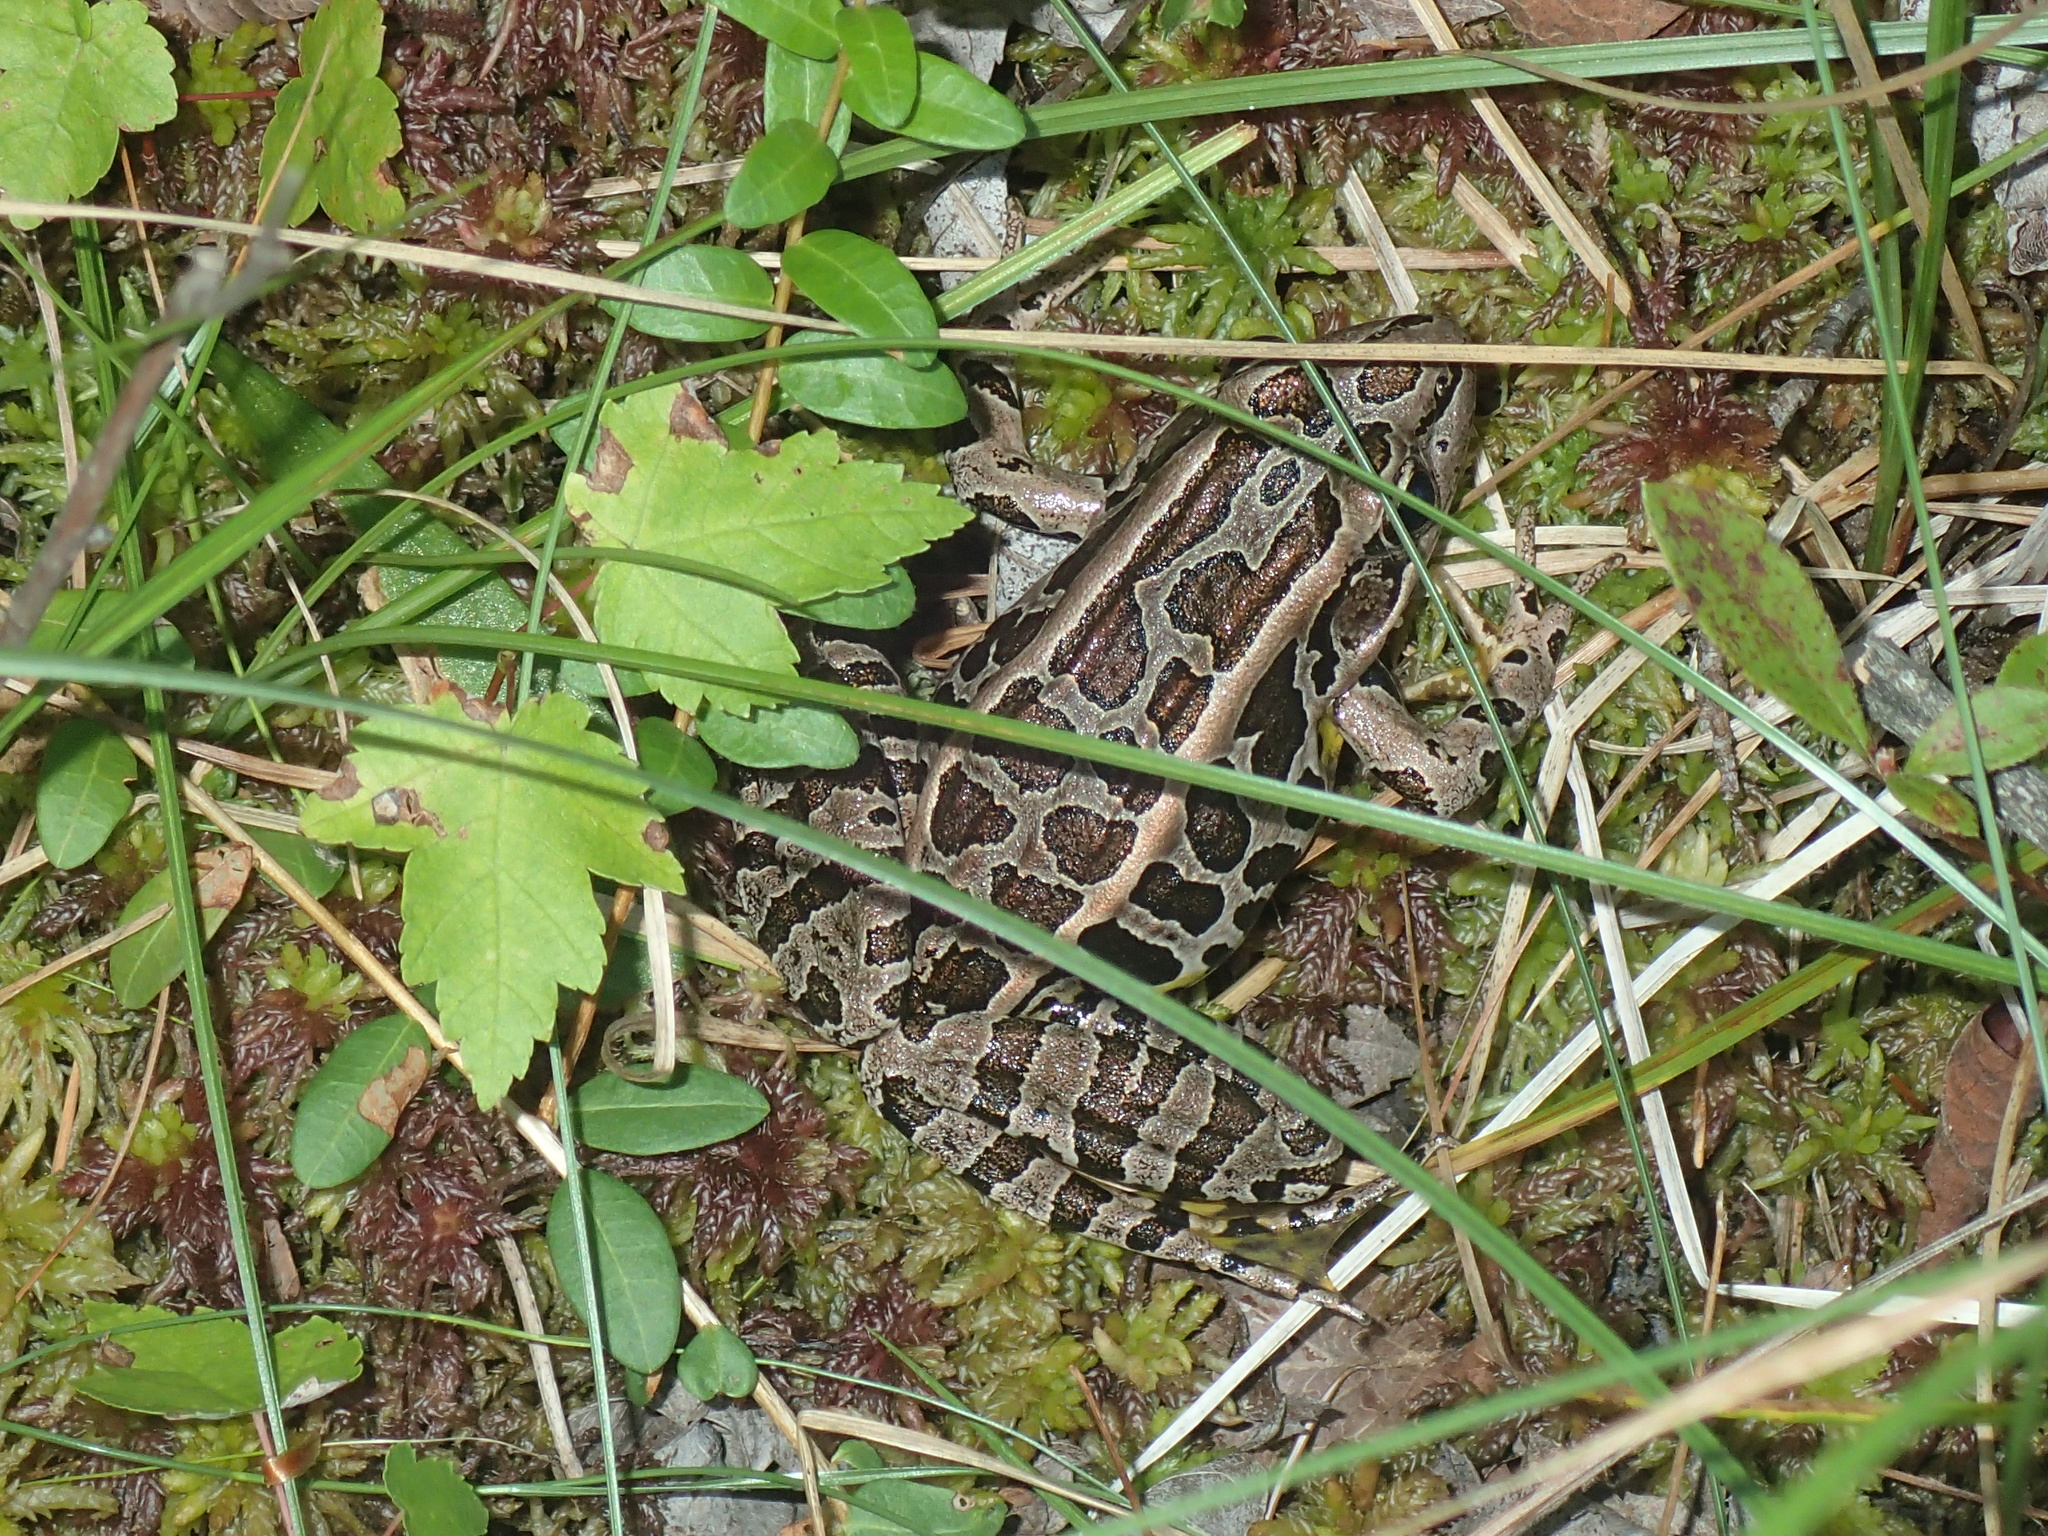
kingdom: Animalia
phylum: Chordata
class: Amphibia
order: Anura
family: Ranidae
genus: Lithobates
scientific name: Lithobates palustris
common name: Pickerel frog
